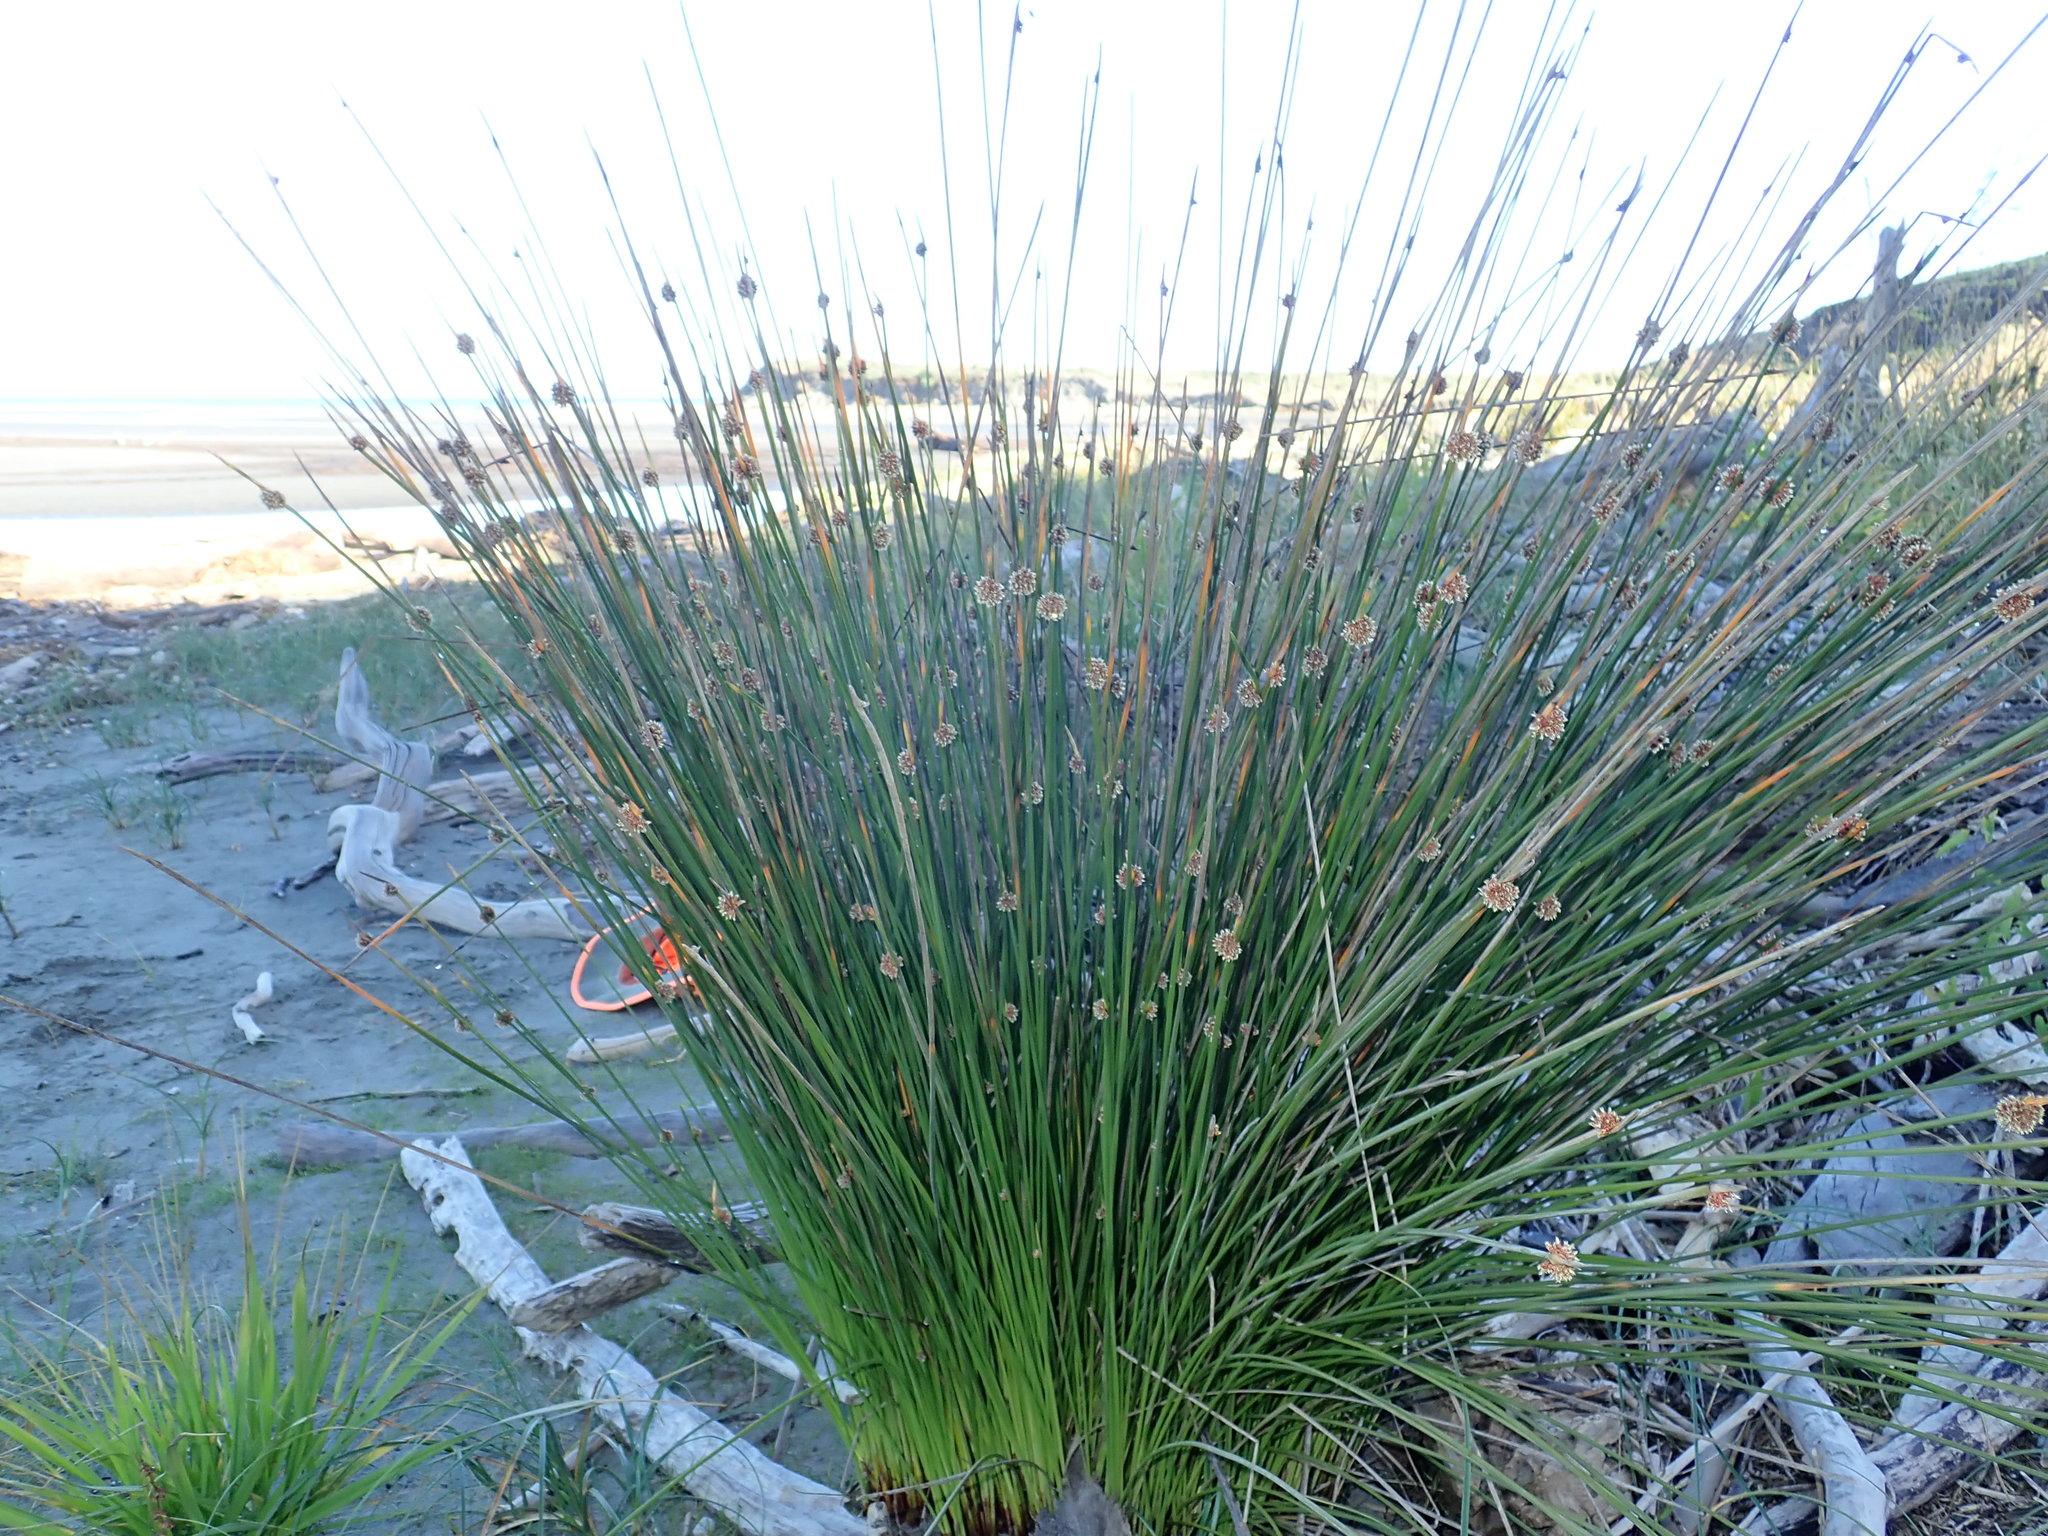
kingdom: Plantae
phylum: Tracheophyta
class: Liliopsida
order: Poales
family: Cyperaceae
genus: Ficinia
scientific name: Ficinia nodosa
